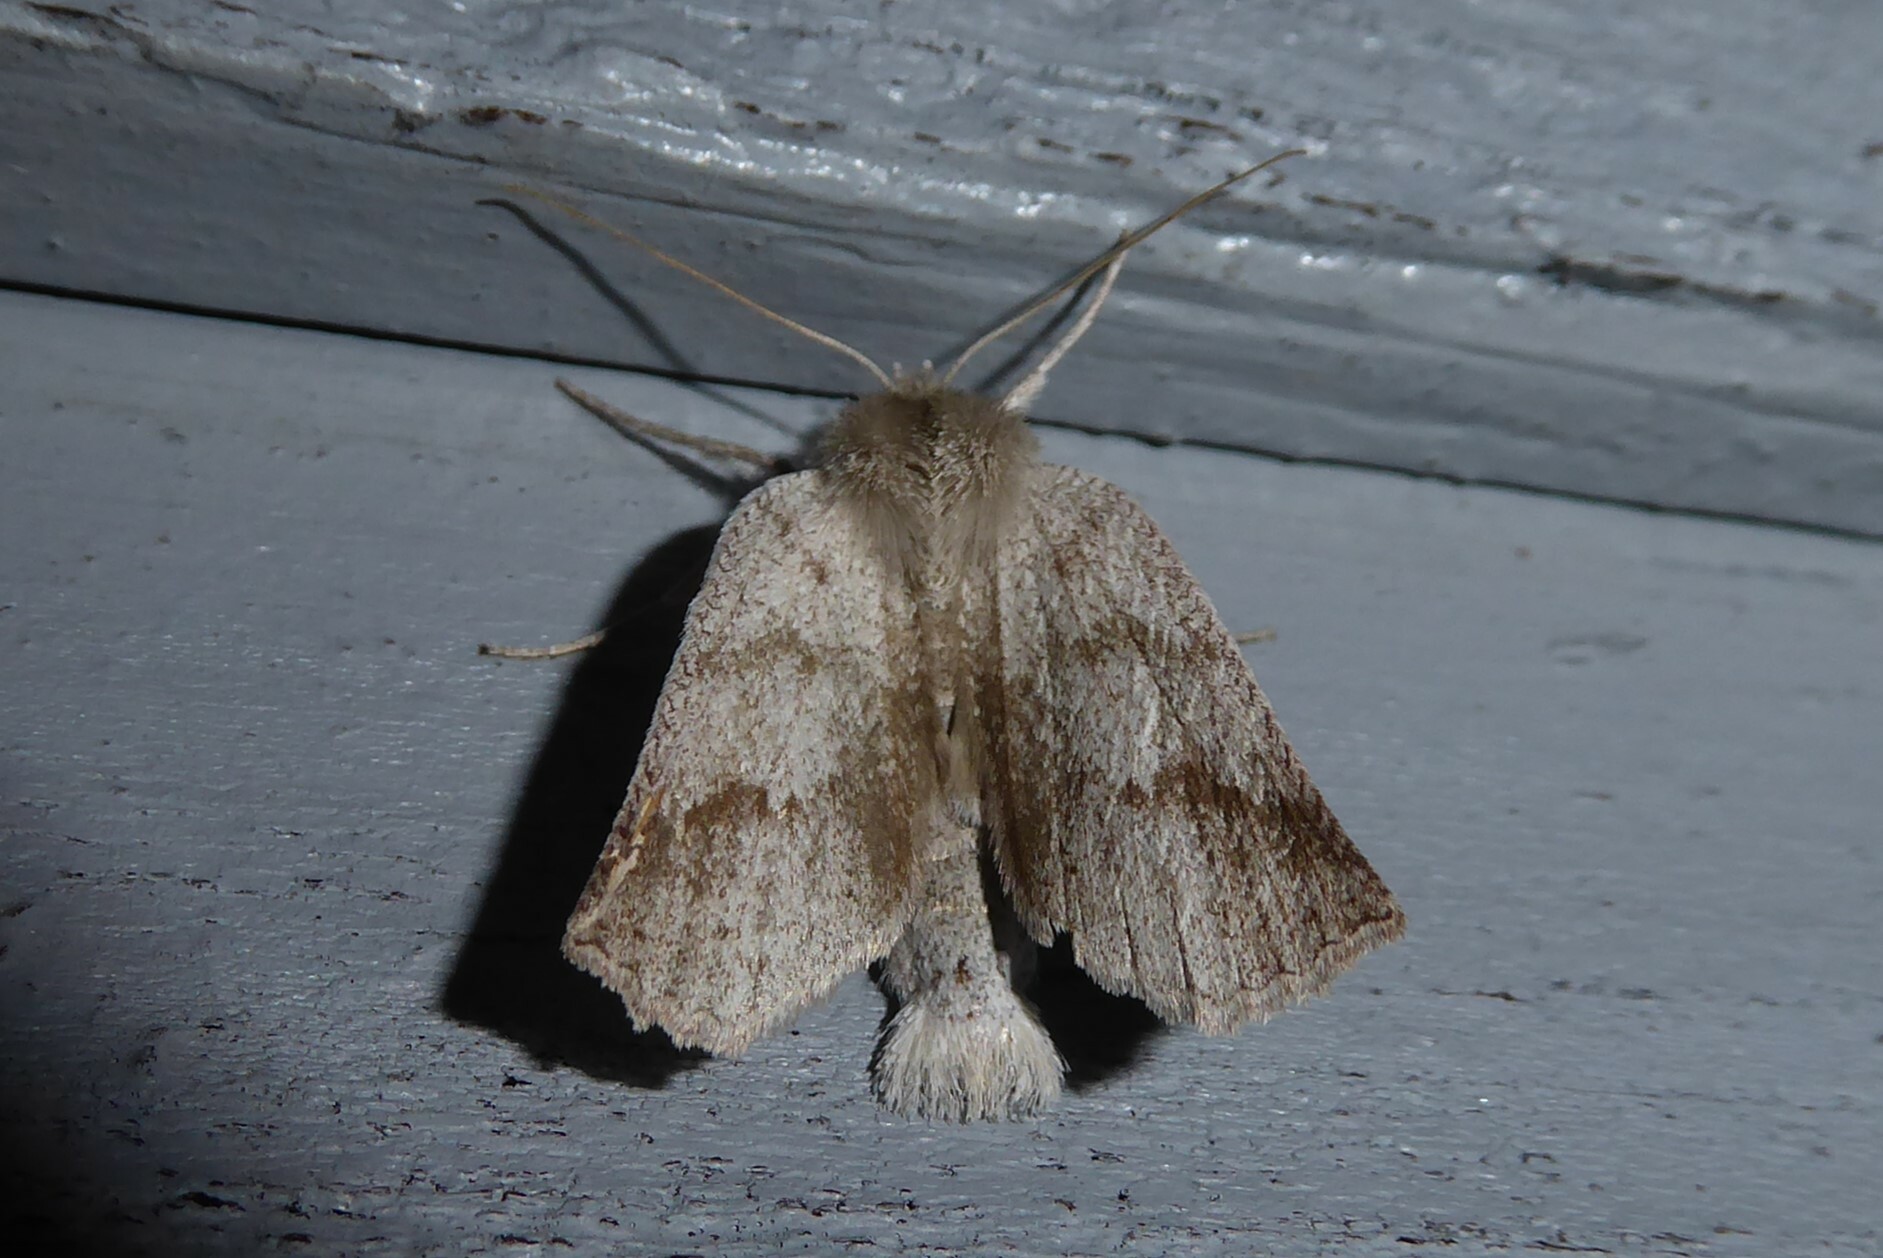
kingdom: Animalia
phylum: Arthropoda
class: Insecta
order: Lepidoptera
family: Geometridae
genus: Declana
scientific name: Declana leptomera
